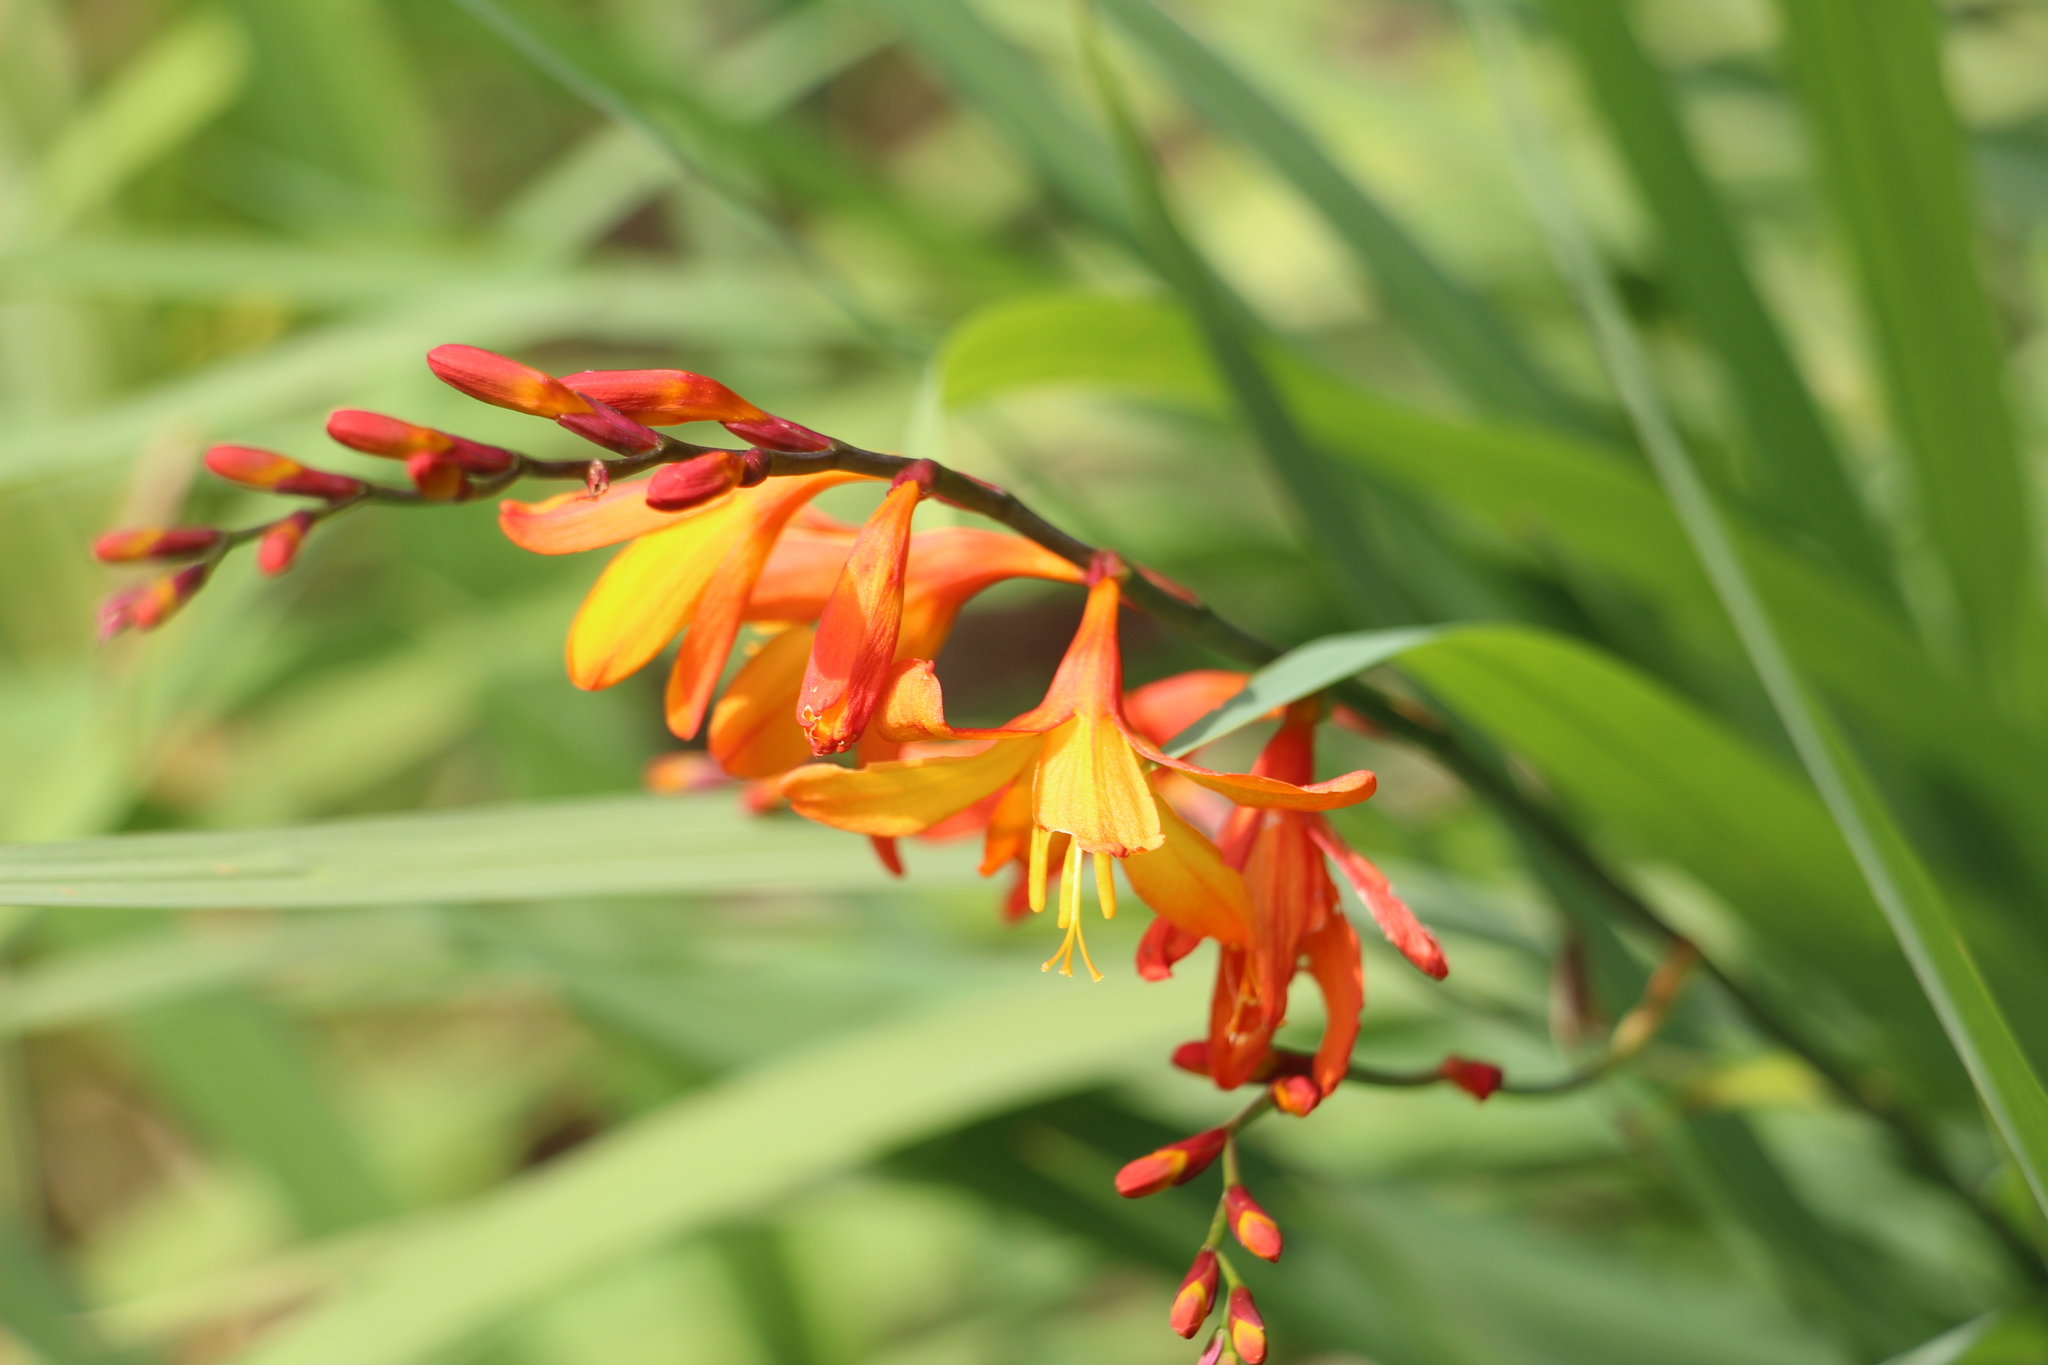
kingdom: Plantae
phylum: Tracheophyta
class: Liliopsida
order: Asparagales
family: Iridaceae
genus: Crocosmia
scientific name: Crocosmia crocosmiiflora
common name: Montbretia
